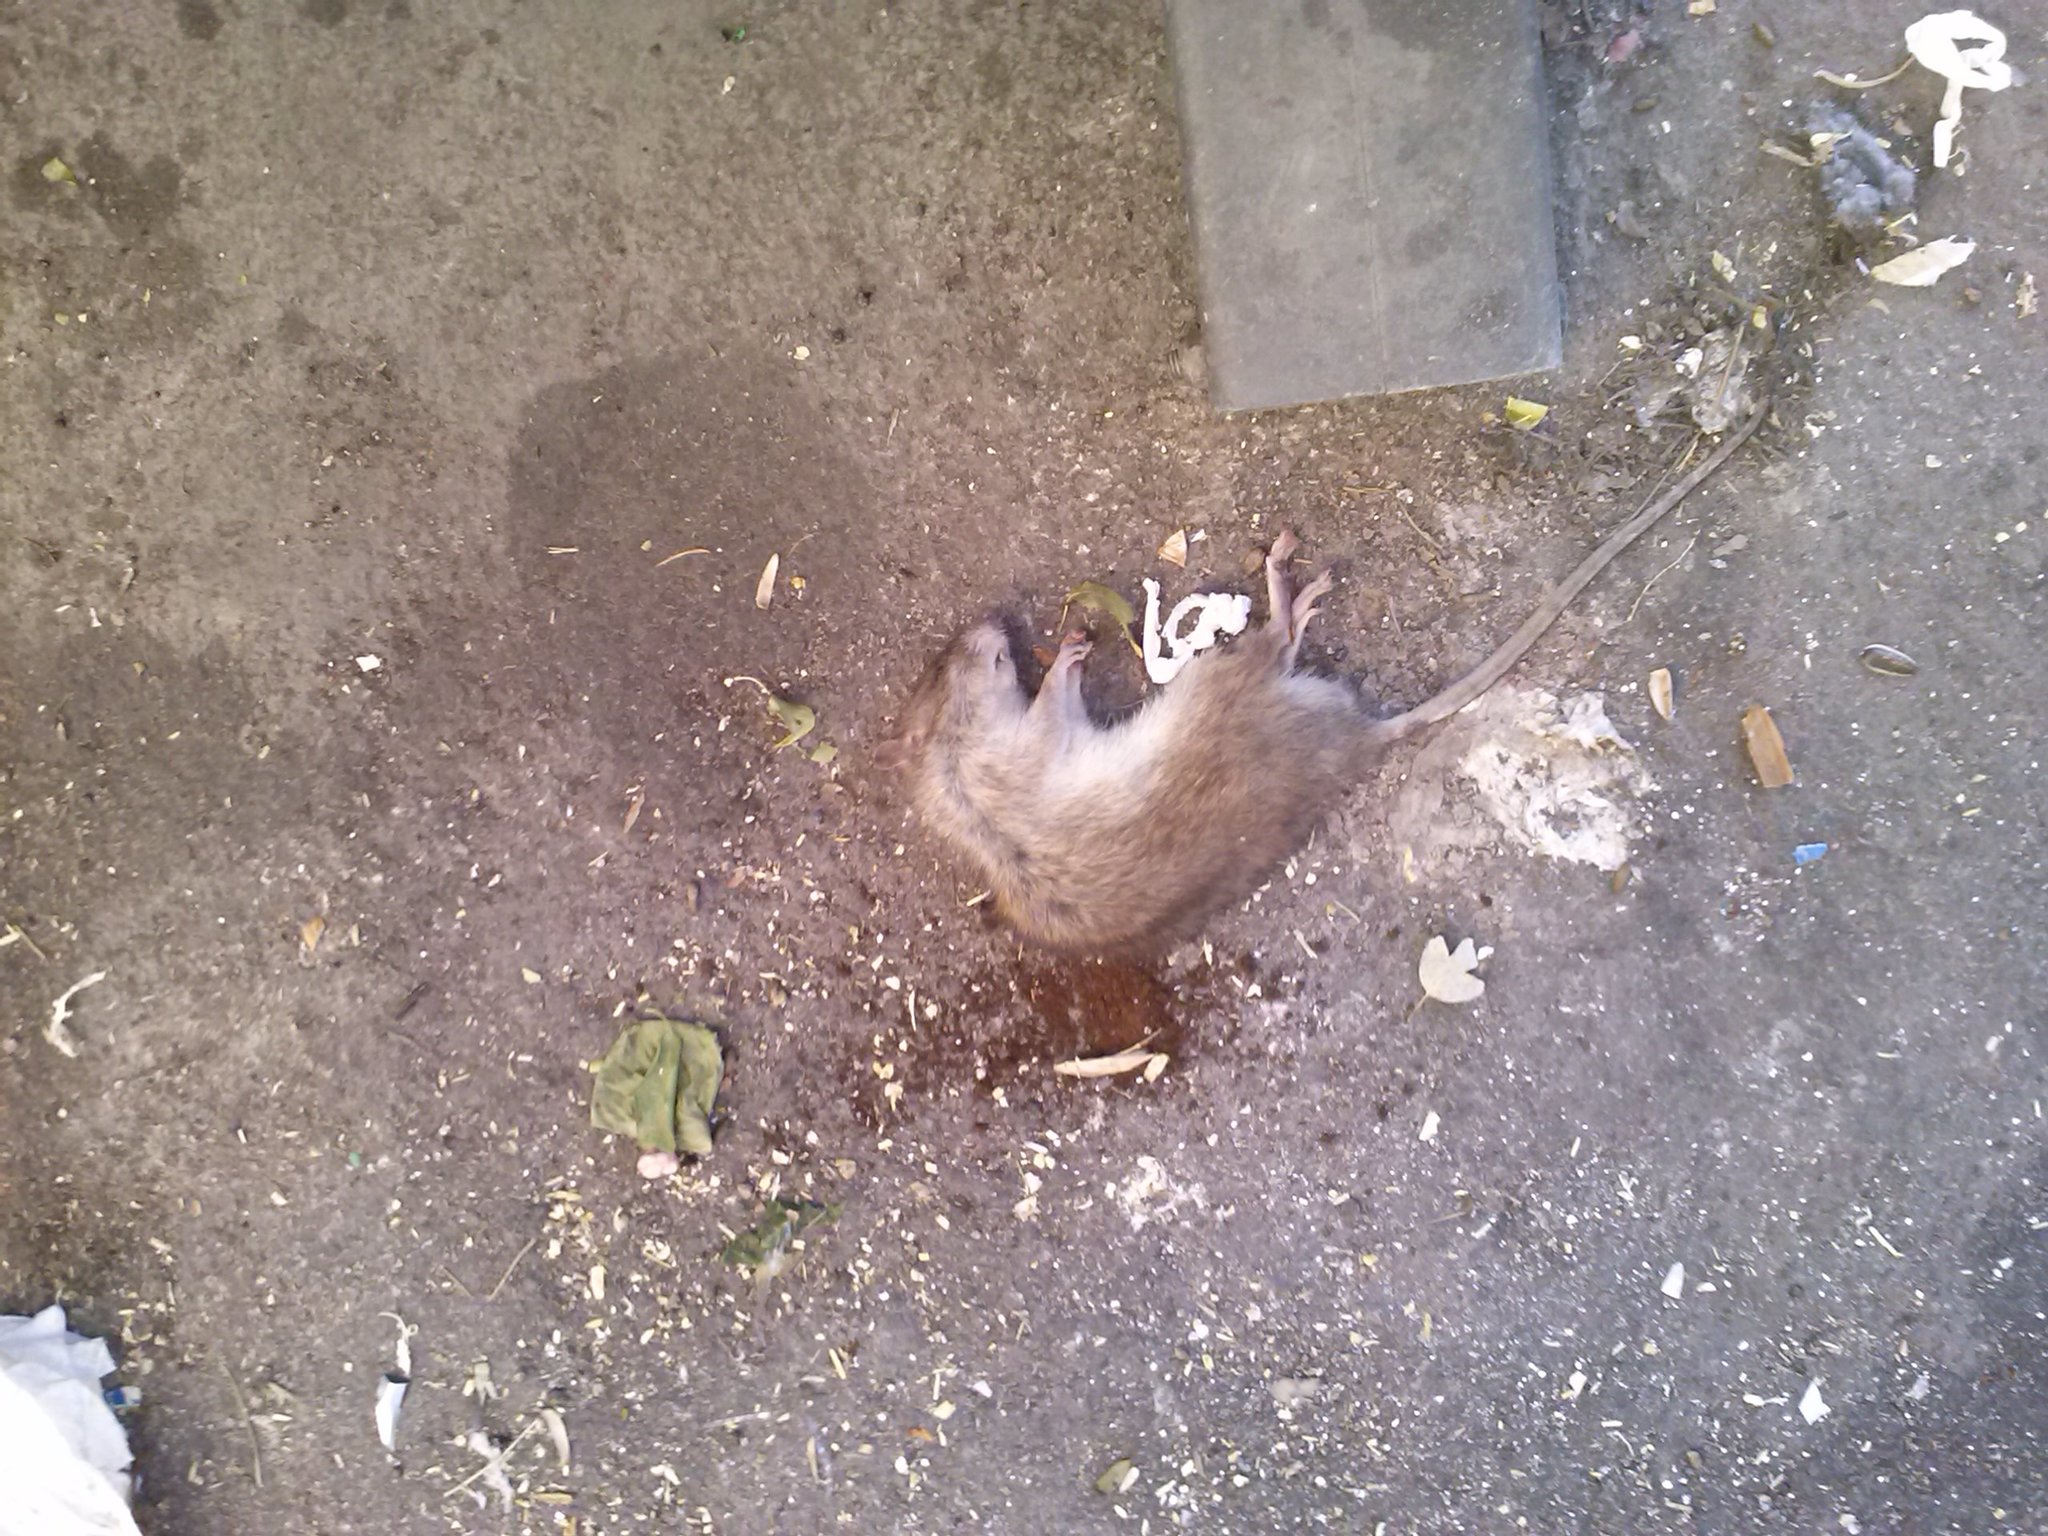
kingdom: Animalia
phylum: Chordata
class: Mammalia
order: Rodentia
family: Muridae
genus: Rattus
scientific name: Rattus norvegicus
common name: Brown rat
